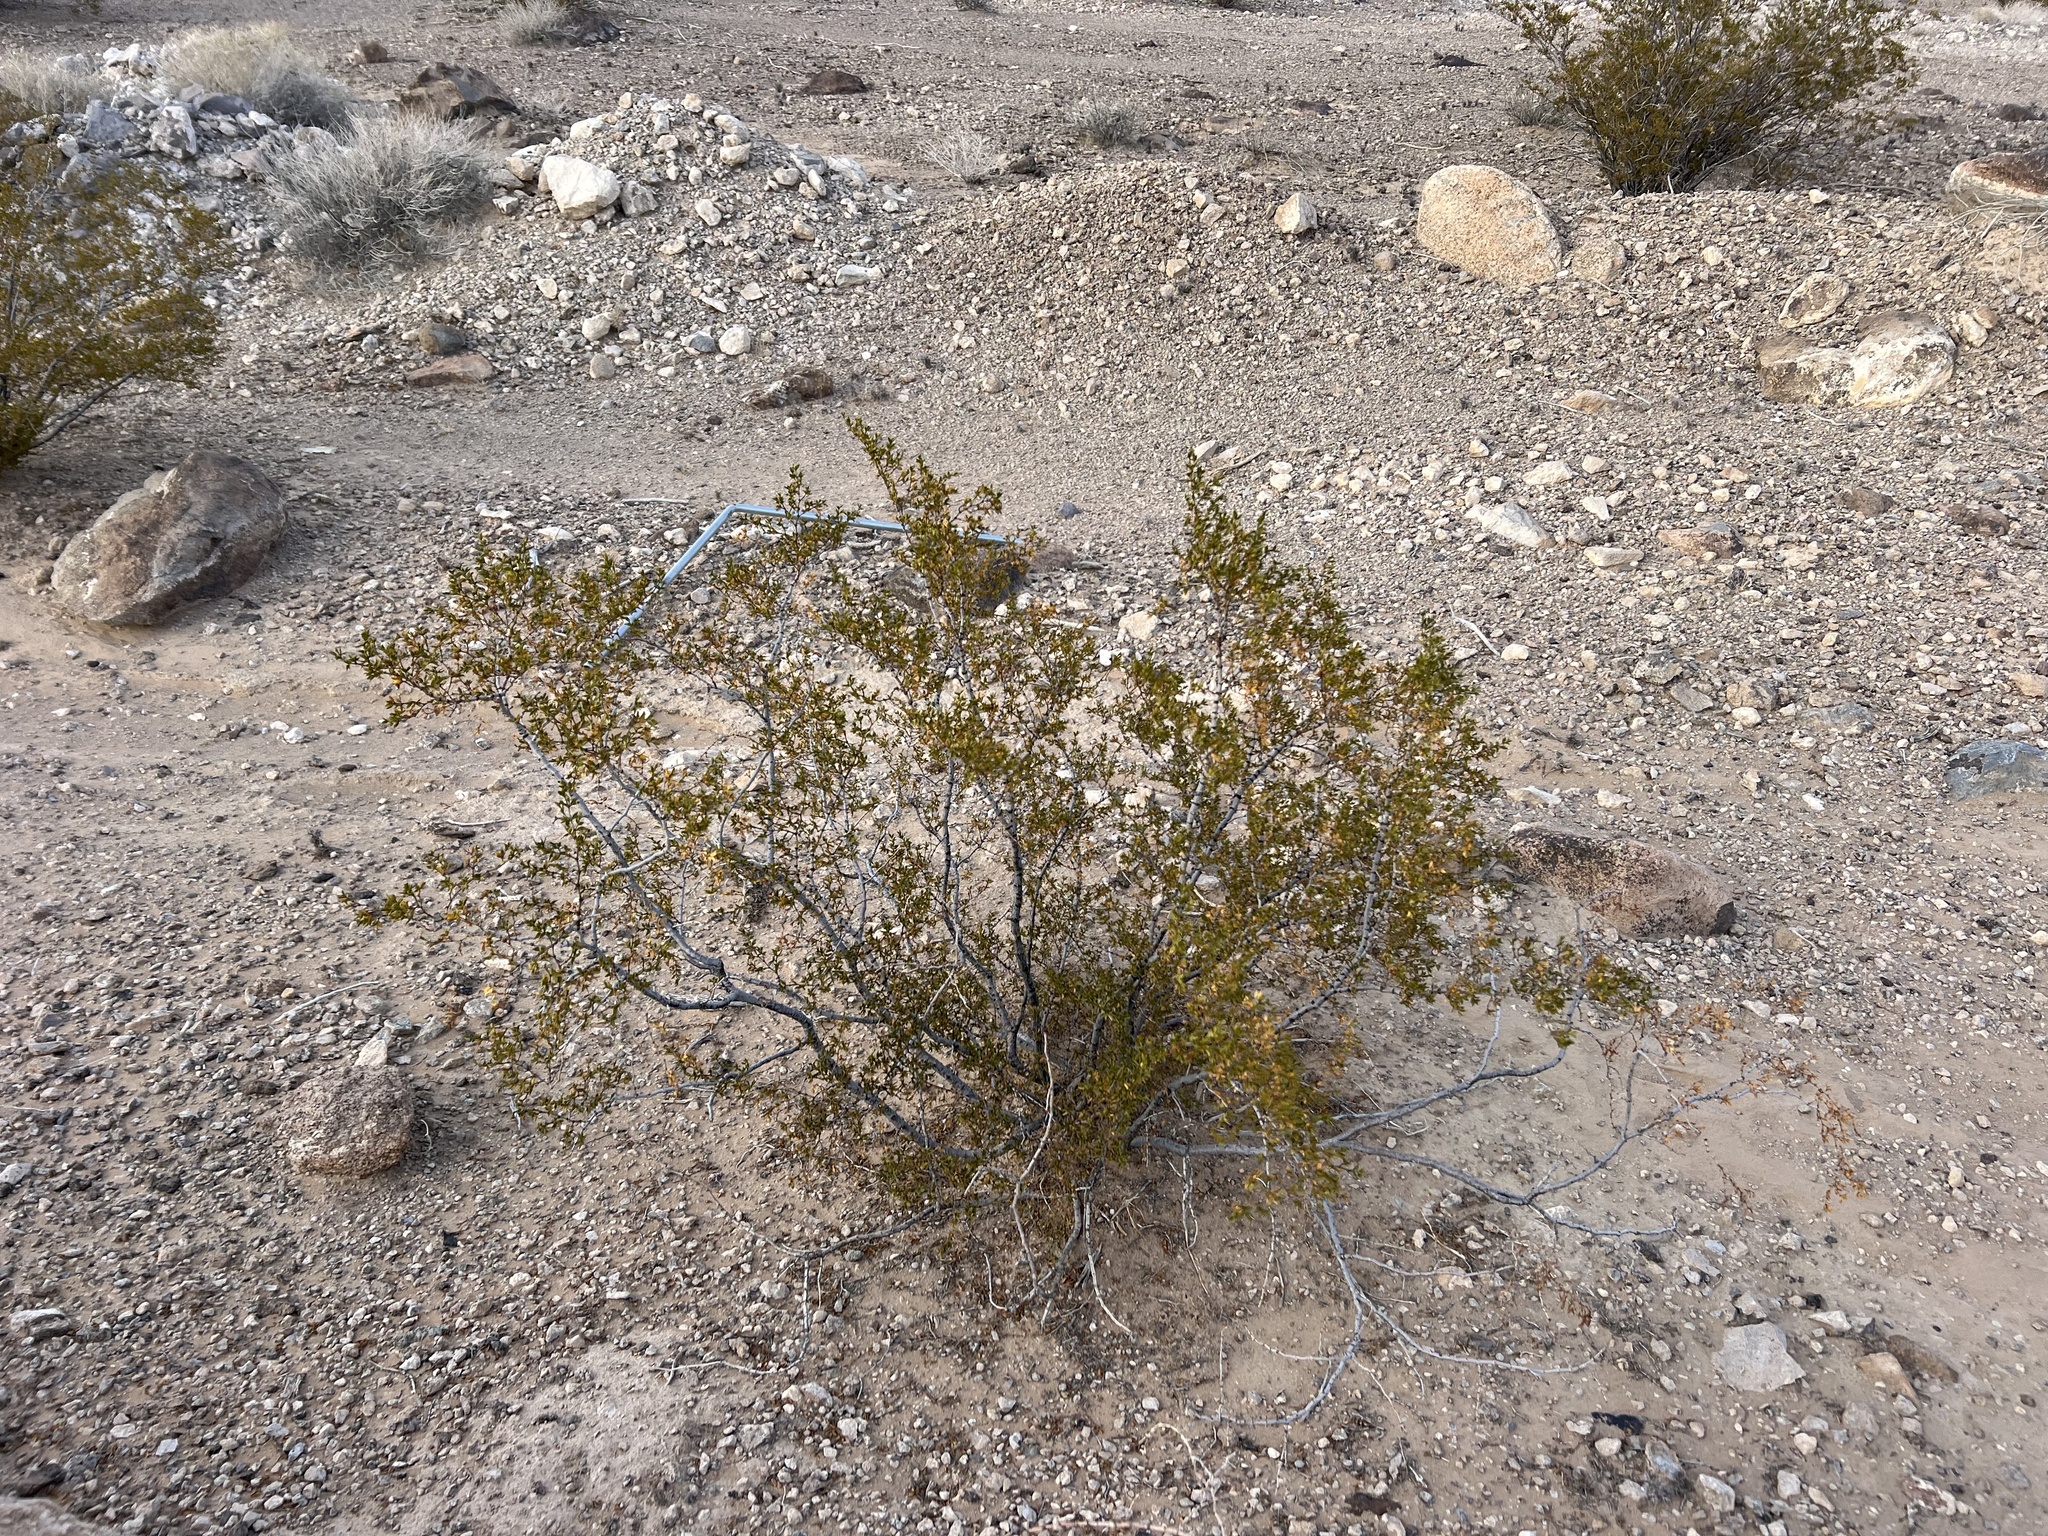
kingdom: Plantae
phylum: Tracheophyta
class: Magnoliopsida
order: Zygophyllales
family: Zygophyllaceae
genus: Larrea
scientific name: Larrea tridentata
